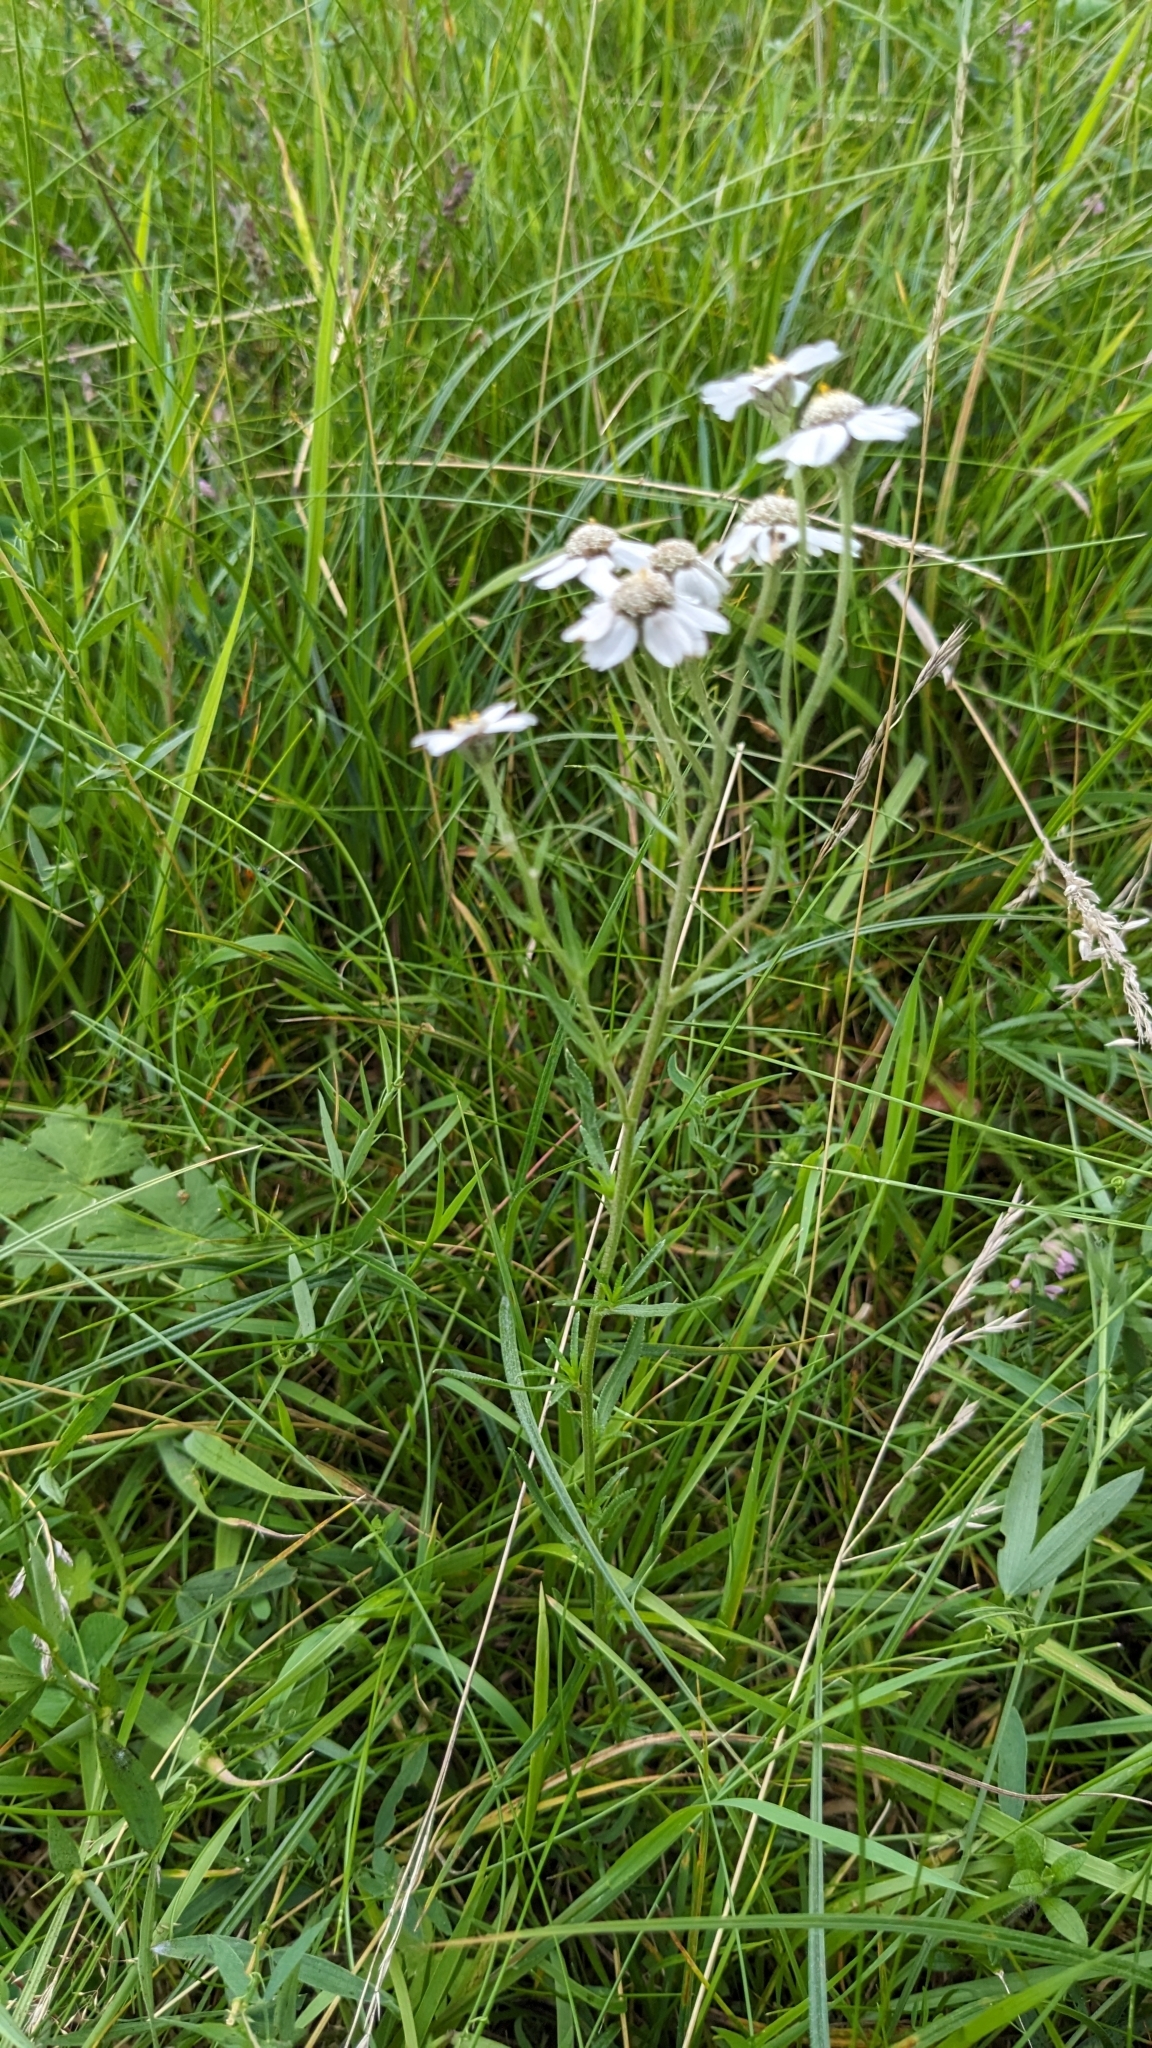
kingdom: Plantae
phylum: Tracheophyta
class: Magnoliopsida
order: Asterales
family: Asteraceae
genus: Achillea
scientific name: Achillea ptarmica
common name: Sneezeweed
